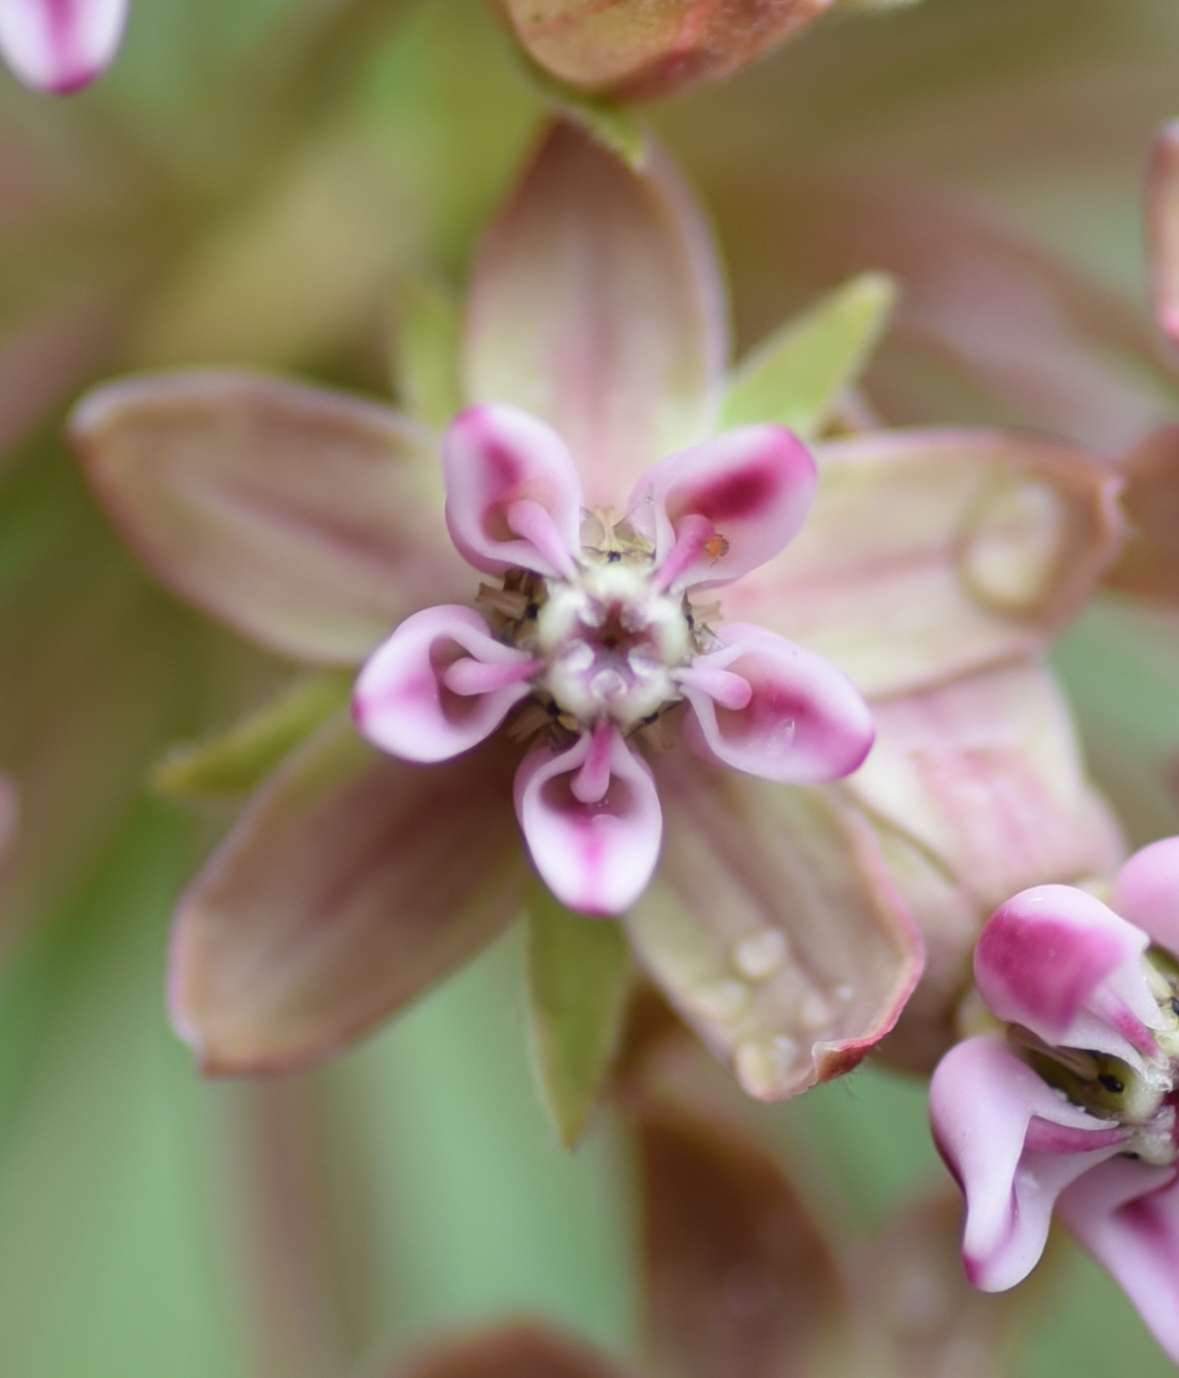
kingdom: Plantae
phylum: Tracheophyta
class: Magnoliopsida
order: Gentianales
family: Apocynaceae
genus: Asclepias
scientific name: Asclepias syriaca
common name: Common milkweed
